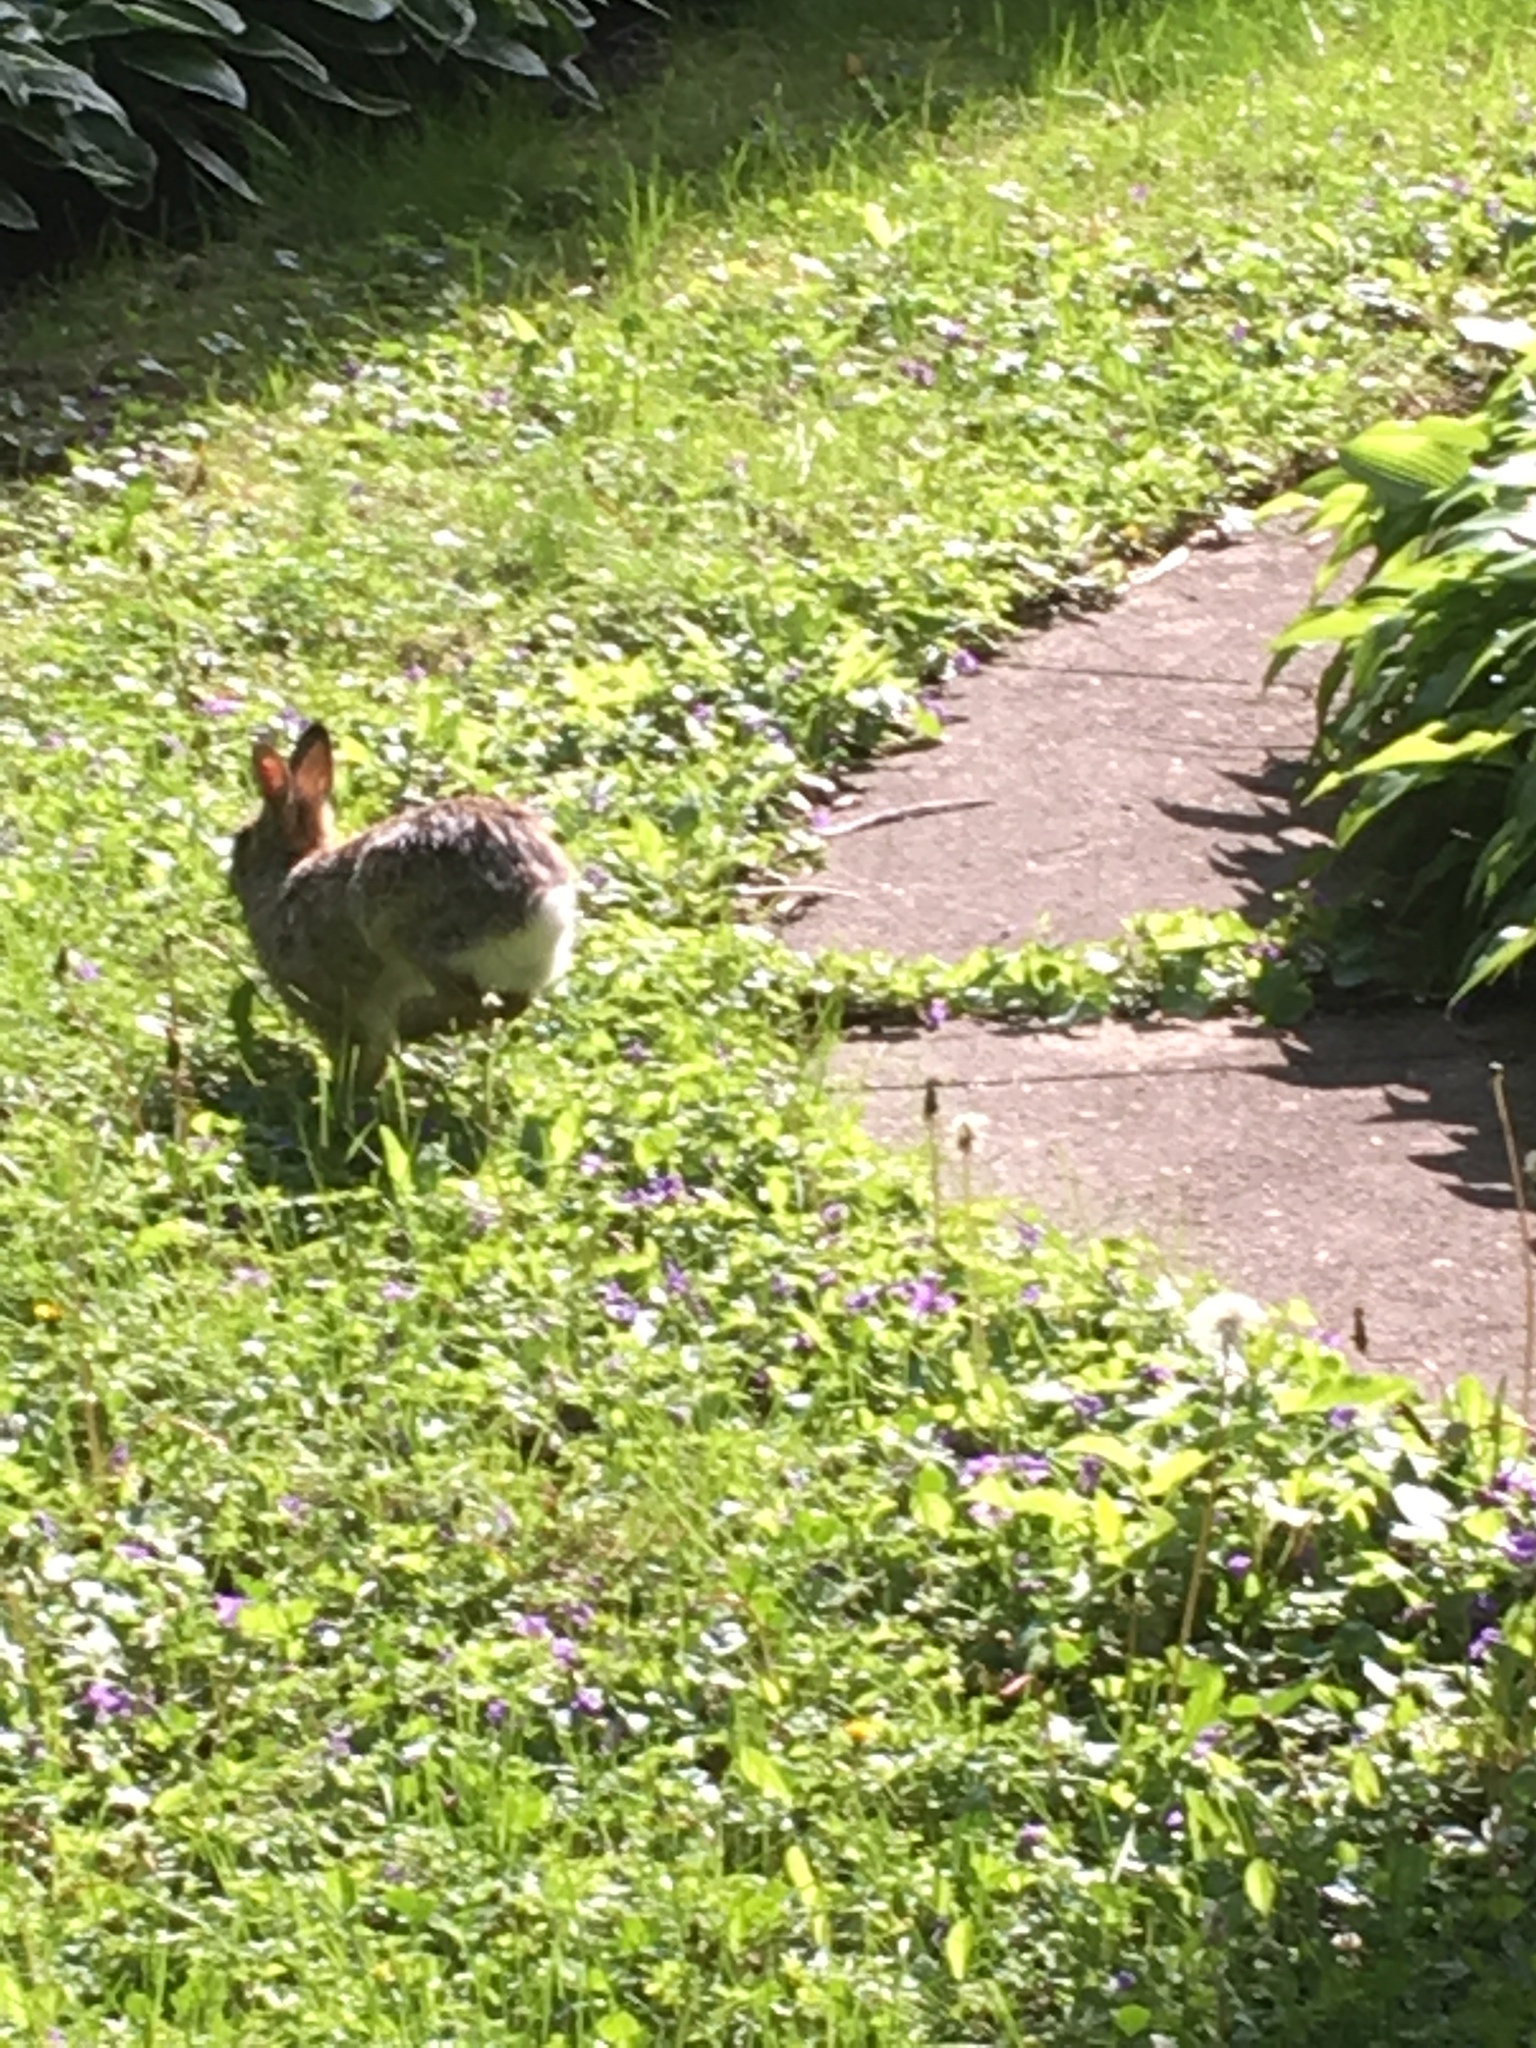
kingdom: Animalia
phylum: Chordata
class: Mammalia
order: Lagomorpha
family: Leporidae
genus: Sylvilagus
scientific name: Sylvilagus floridanus
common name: Eastern cottontail
